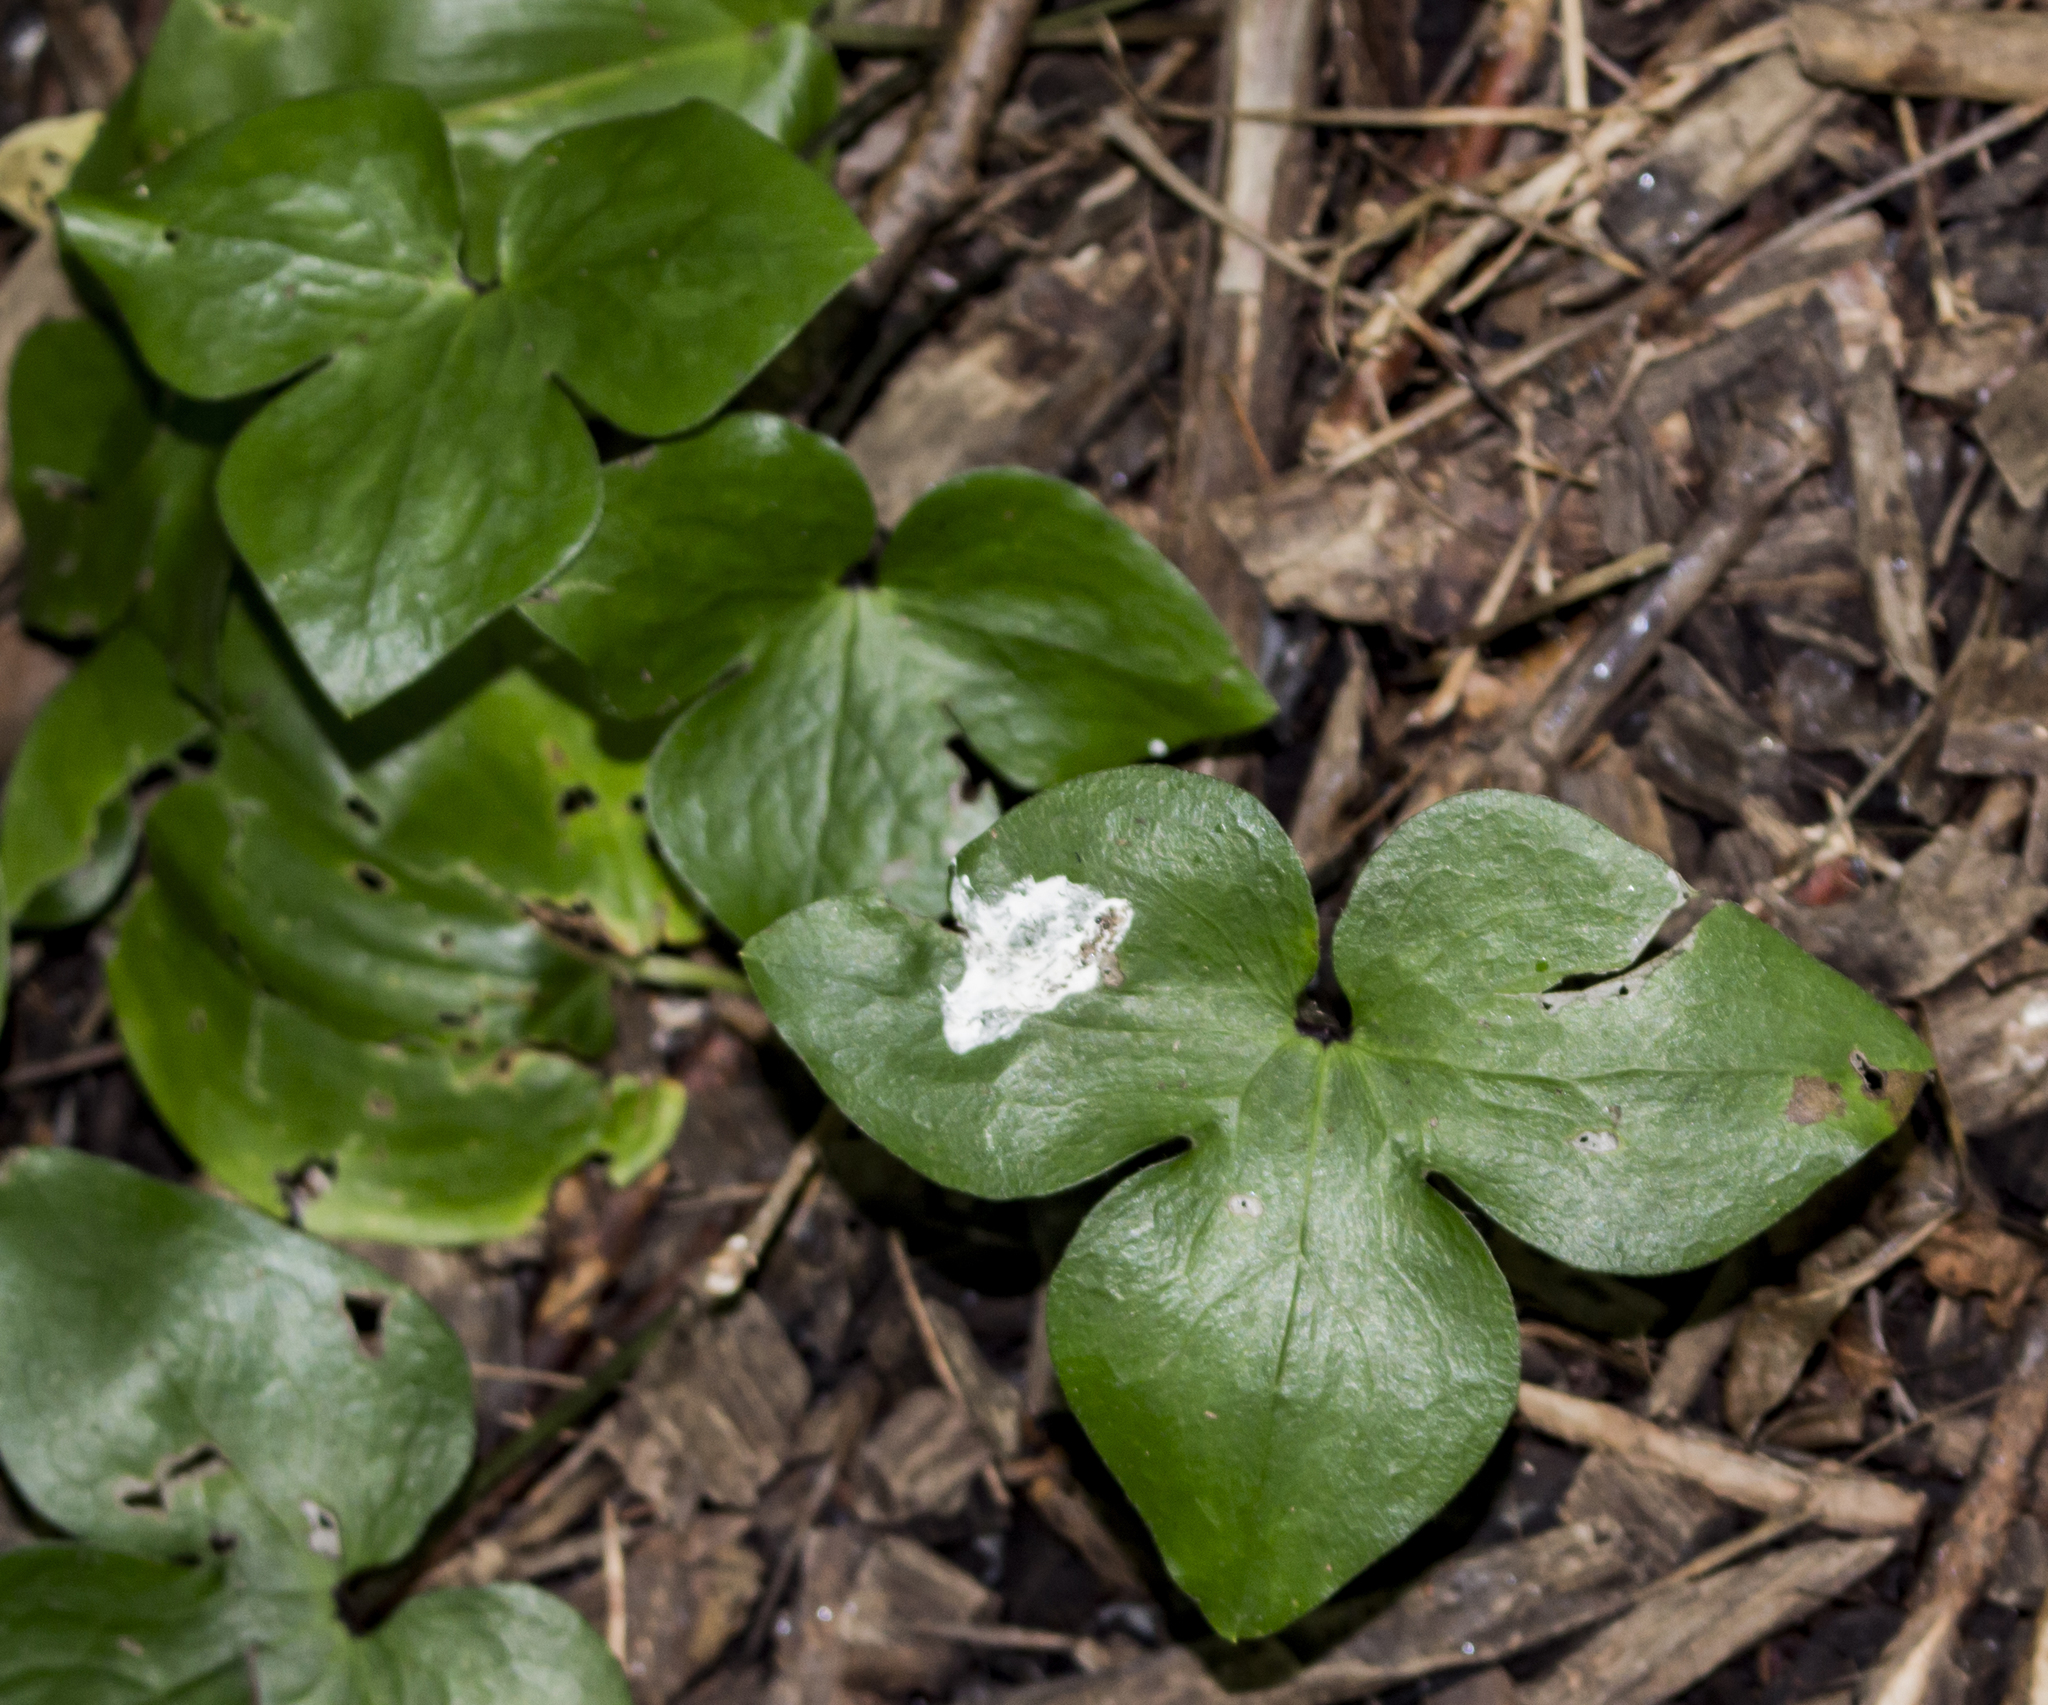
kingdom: Plantae
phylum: Tracheophyta
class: Magnoliopsida
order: Ranunculales
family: Ranunculaceae
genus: Hepatica
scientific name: Hepatica acutiloba
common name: Sharp-lobed hepatica
